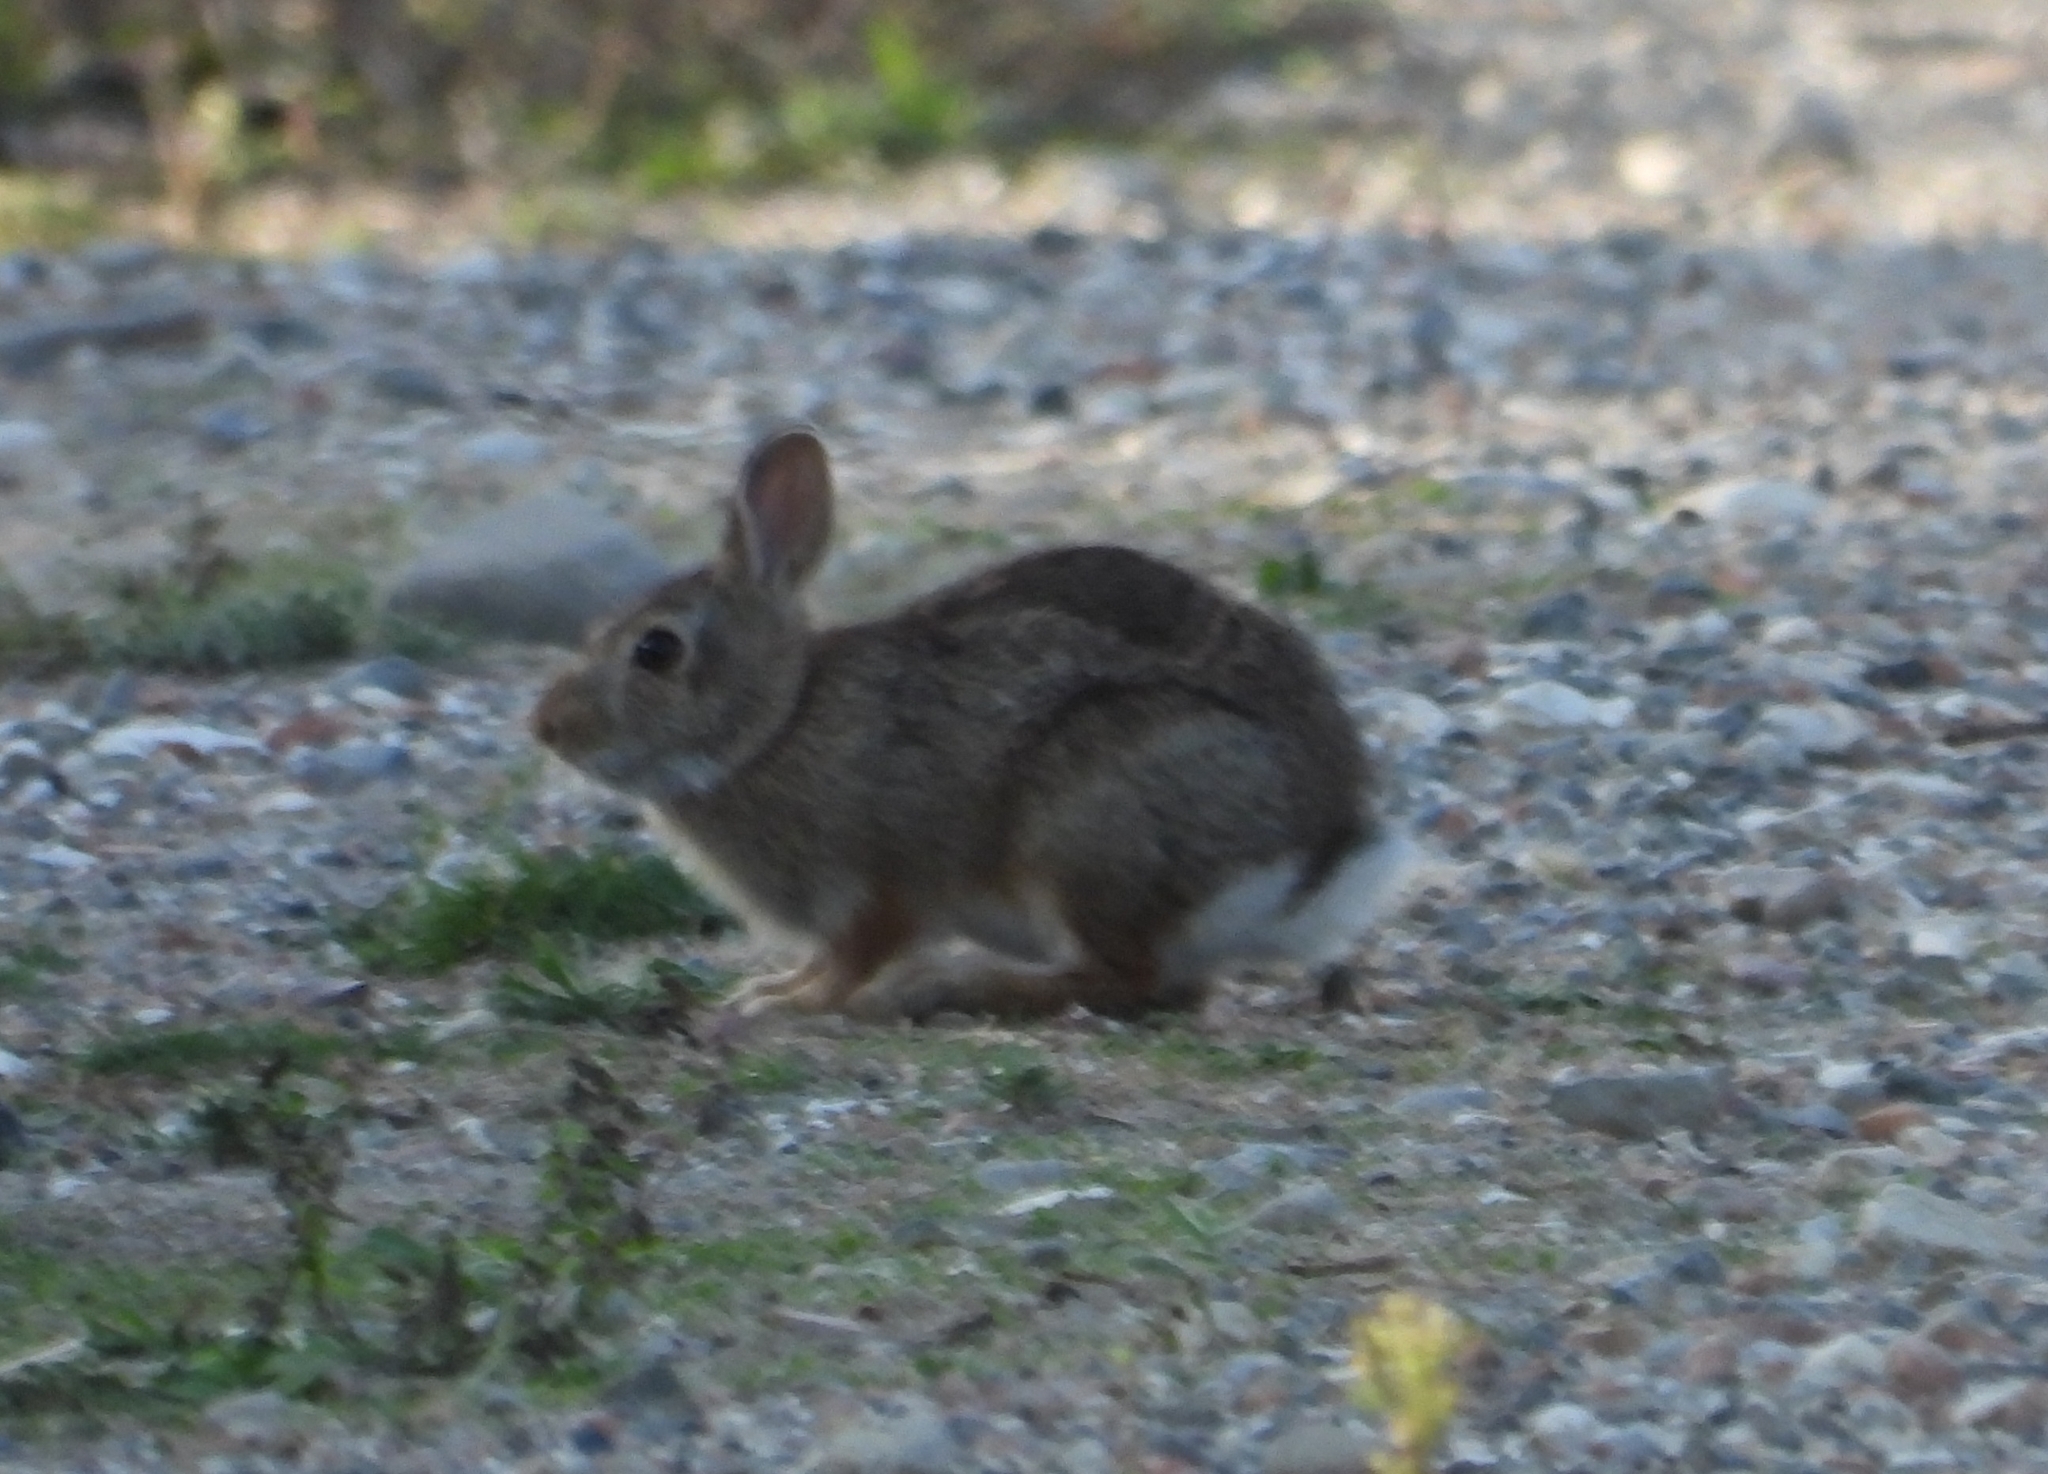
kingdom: Animalia
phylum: Chordata
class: Mammalia
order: Lagomorpha
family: Leporidae
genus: Sylvilagus
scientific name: Sylvilagus floridanus
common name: Eastern cottontail
